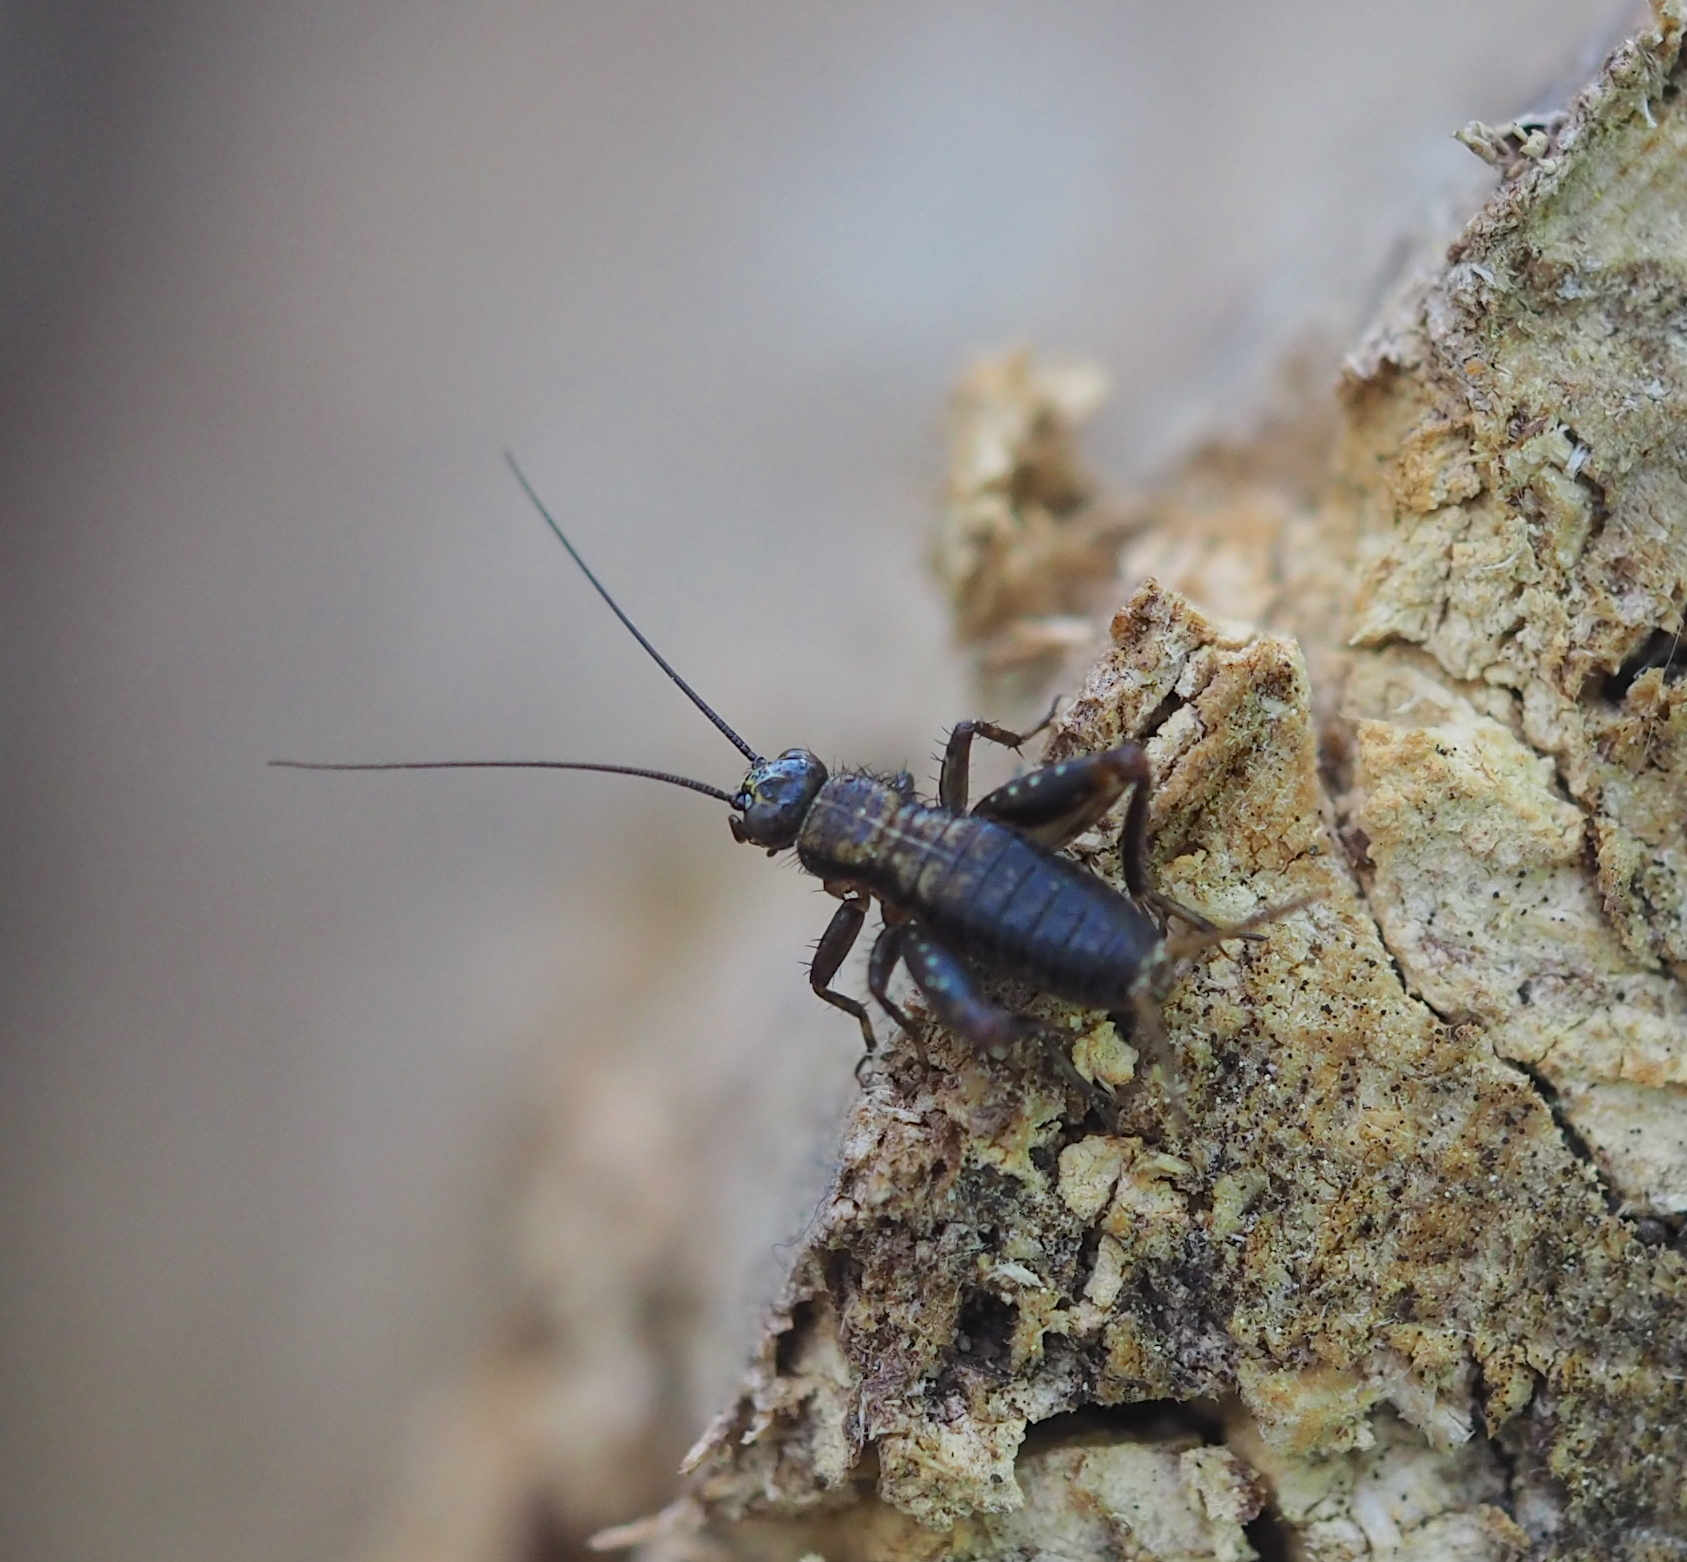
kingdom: Animalia
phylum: Arthropoda
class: Insecta
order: Orthoptera
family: Trigonidiidae
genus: Nemobius
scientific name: Nemobius sylvestris
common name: Wood-cricket
